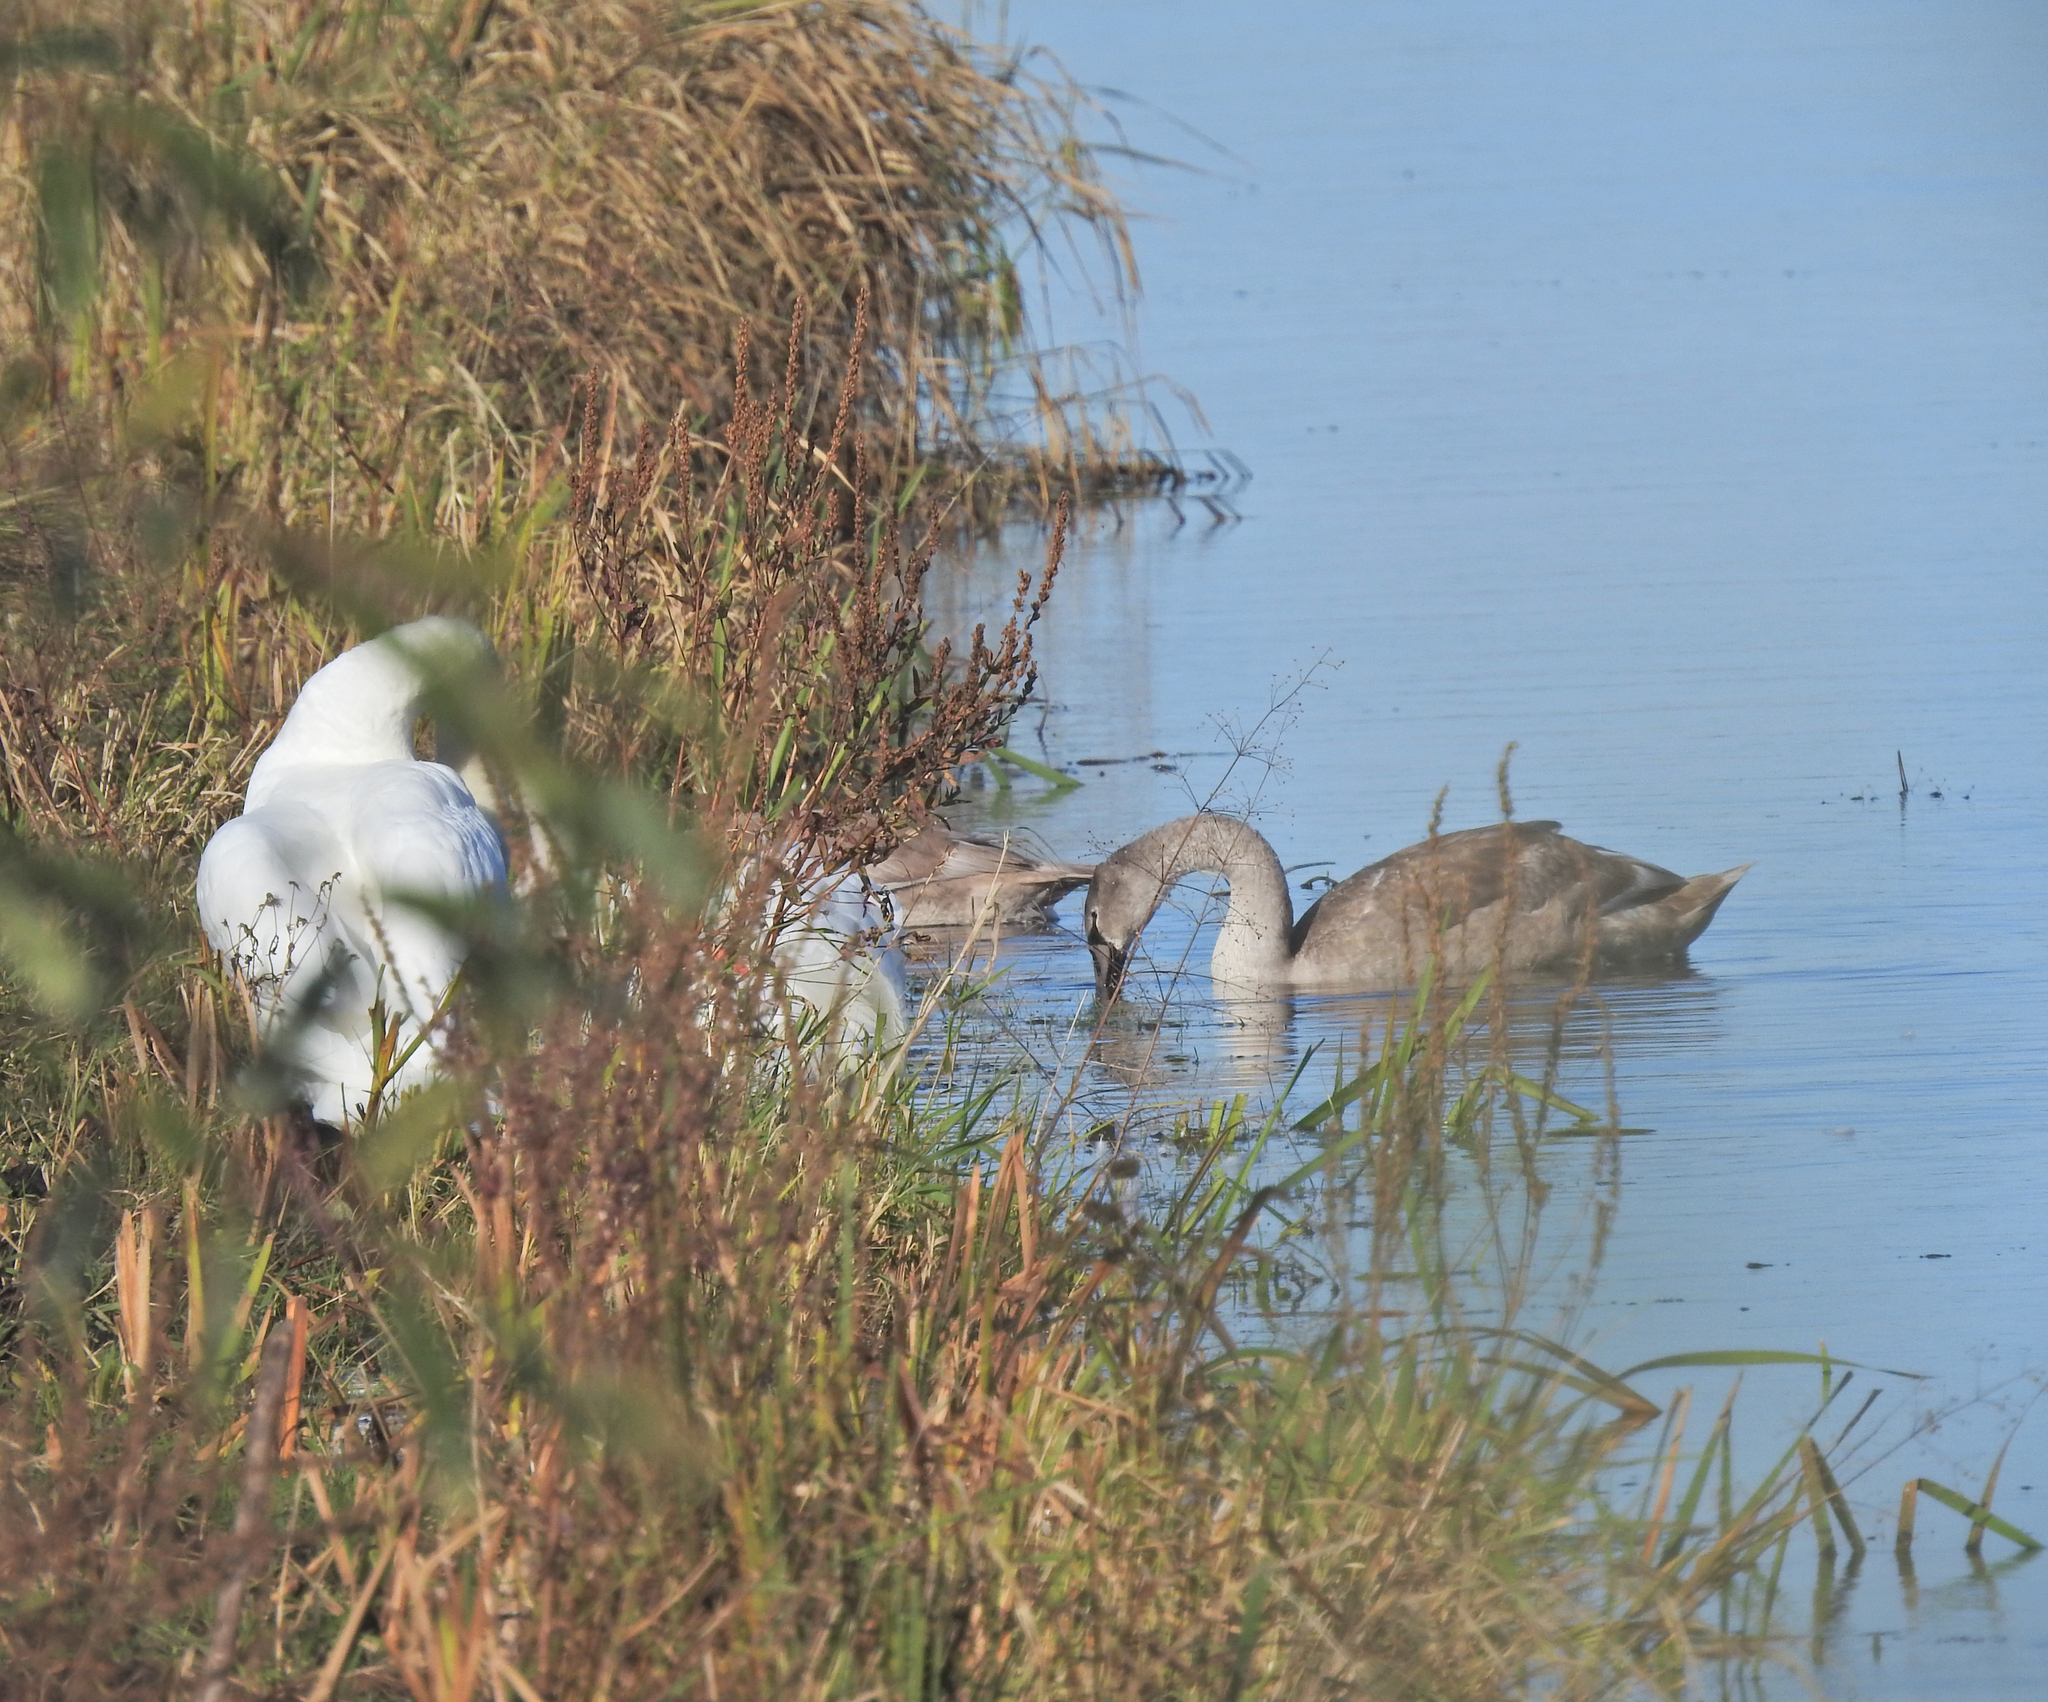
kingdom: Animalia
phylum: Chordata
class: Aves
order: Anseriformes
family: Anatidae
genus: Cygnus
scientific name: Cygnus olor
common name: Mute swan
